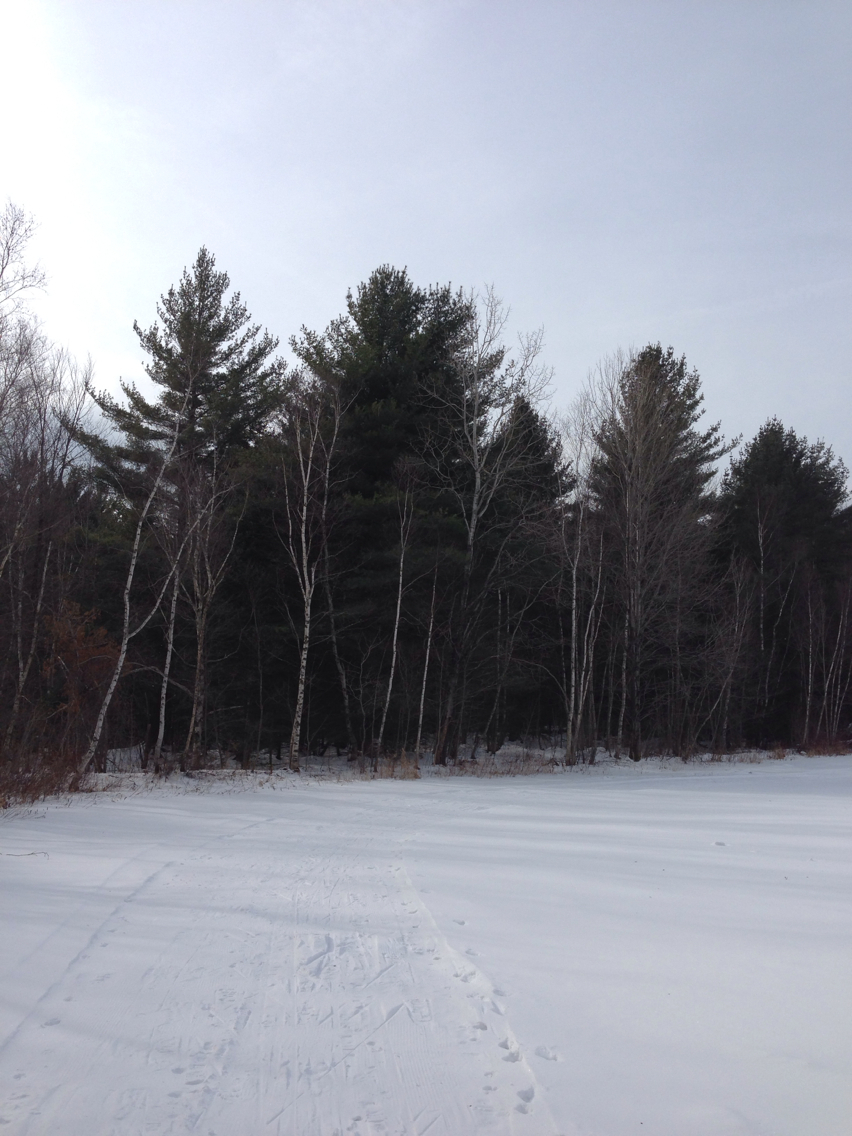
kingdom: Plantae
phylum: Tracheophyta
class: Pinopsida
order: Pinales
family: Pinaceae
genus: Pinus
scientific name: Pinus strobus
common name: Weymouth pine
